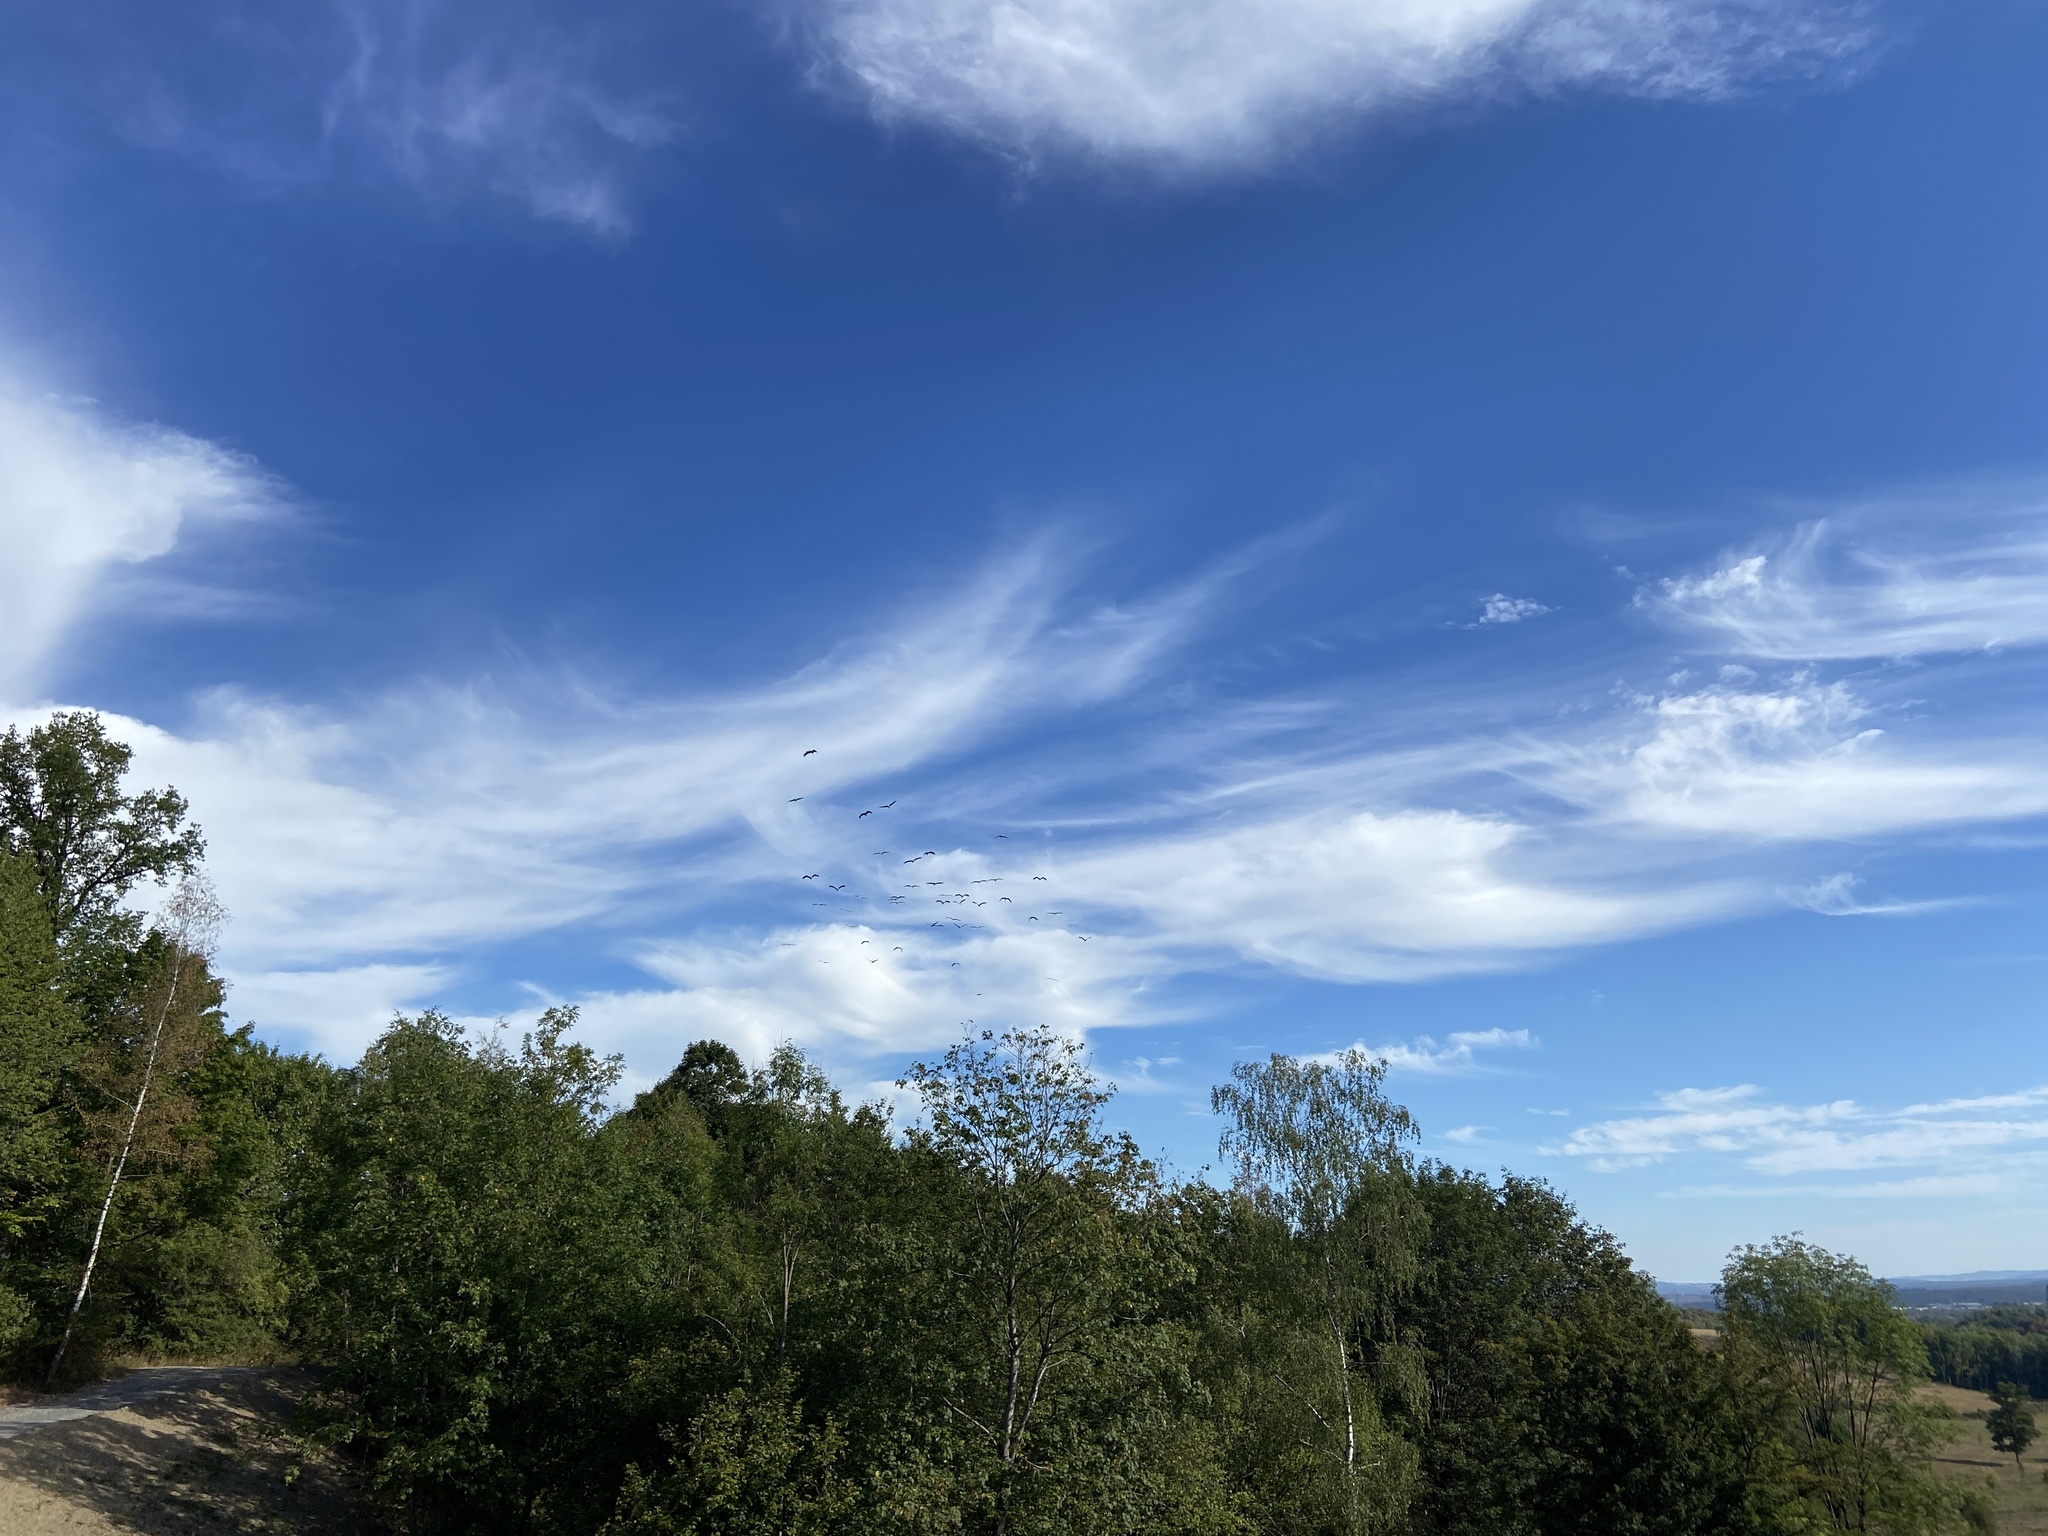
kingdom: Animalia
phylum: Chordata
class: Aves
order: Ciconiiformes
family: Ciconiidae
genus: Ciconia
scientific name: Ciconia ciconia
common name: White stork
